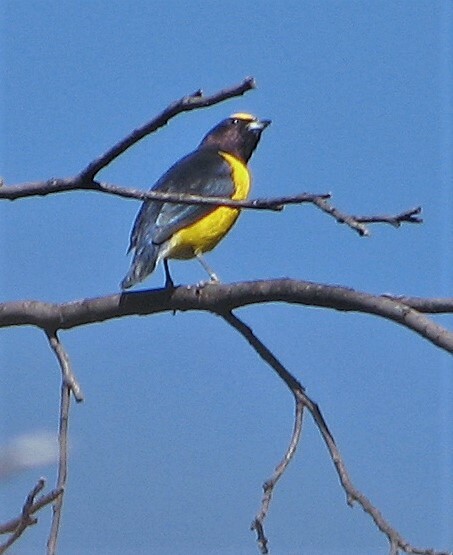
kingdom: Animalia
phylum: Chordata
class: Aves
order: Passeriformes
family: Fringillidae
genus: Euphonia
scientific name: Euphonia chlorotica
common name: Purple-throated euphonia
